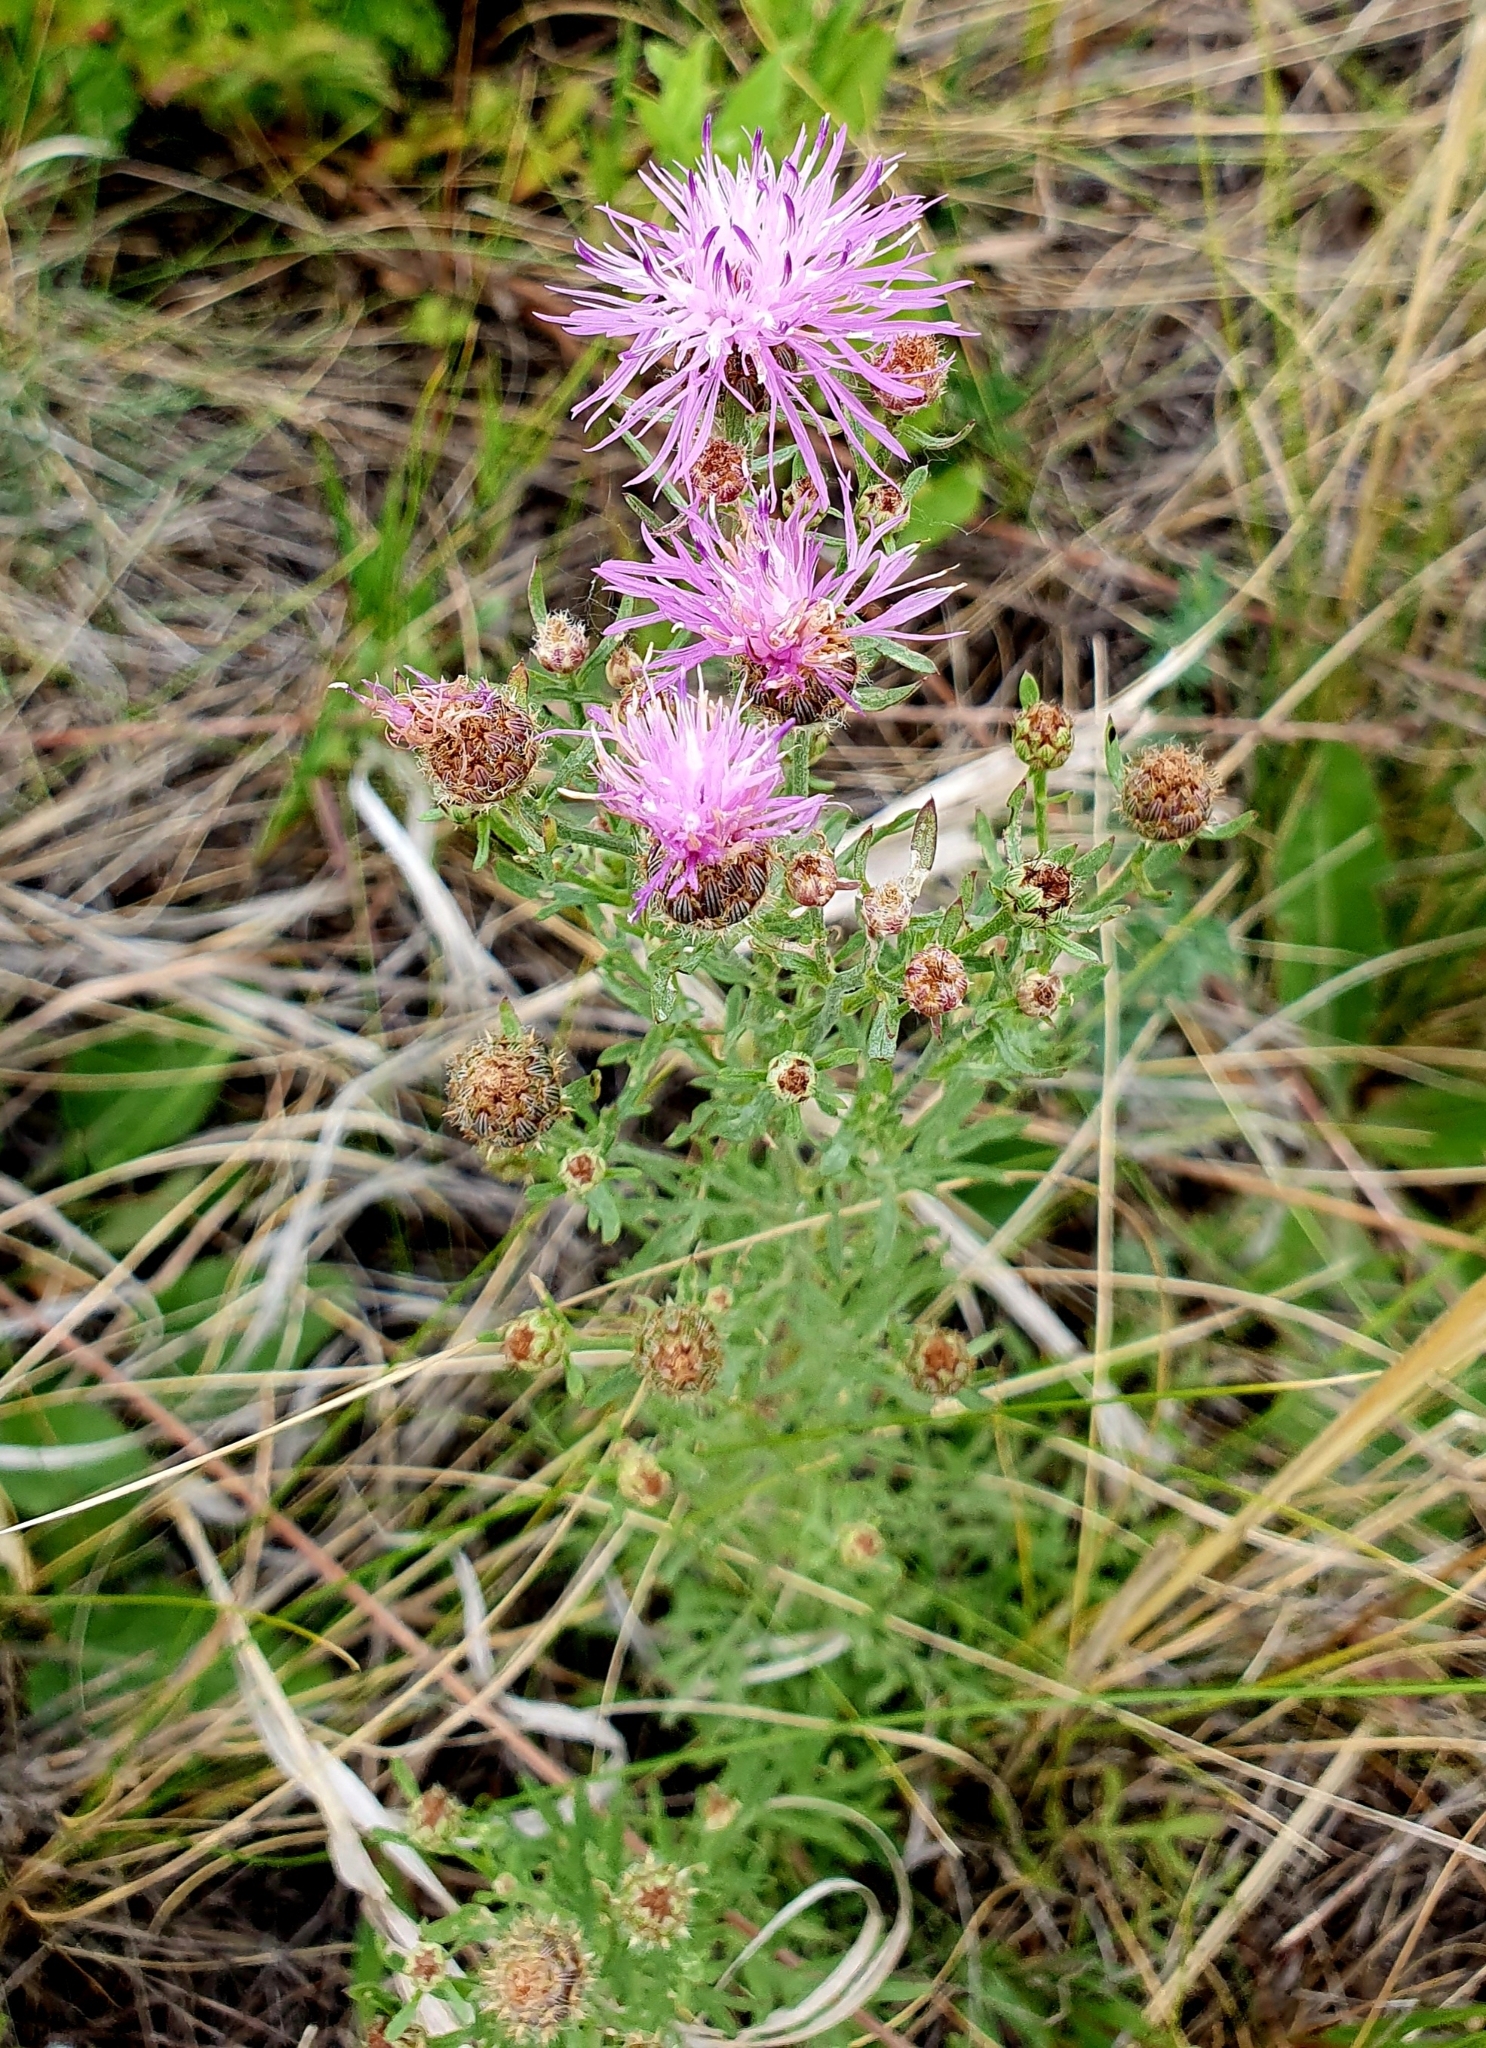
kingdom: Plantae
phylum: Tracheophyta
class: Magnoliopsida
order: Asterales
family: Asteraceae
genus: Centaurea
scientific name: Centaurea stoebe
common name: Spotted knapweed
